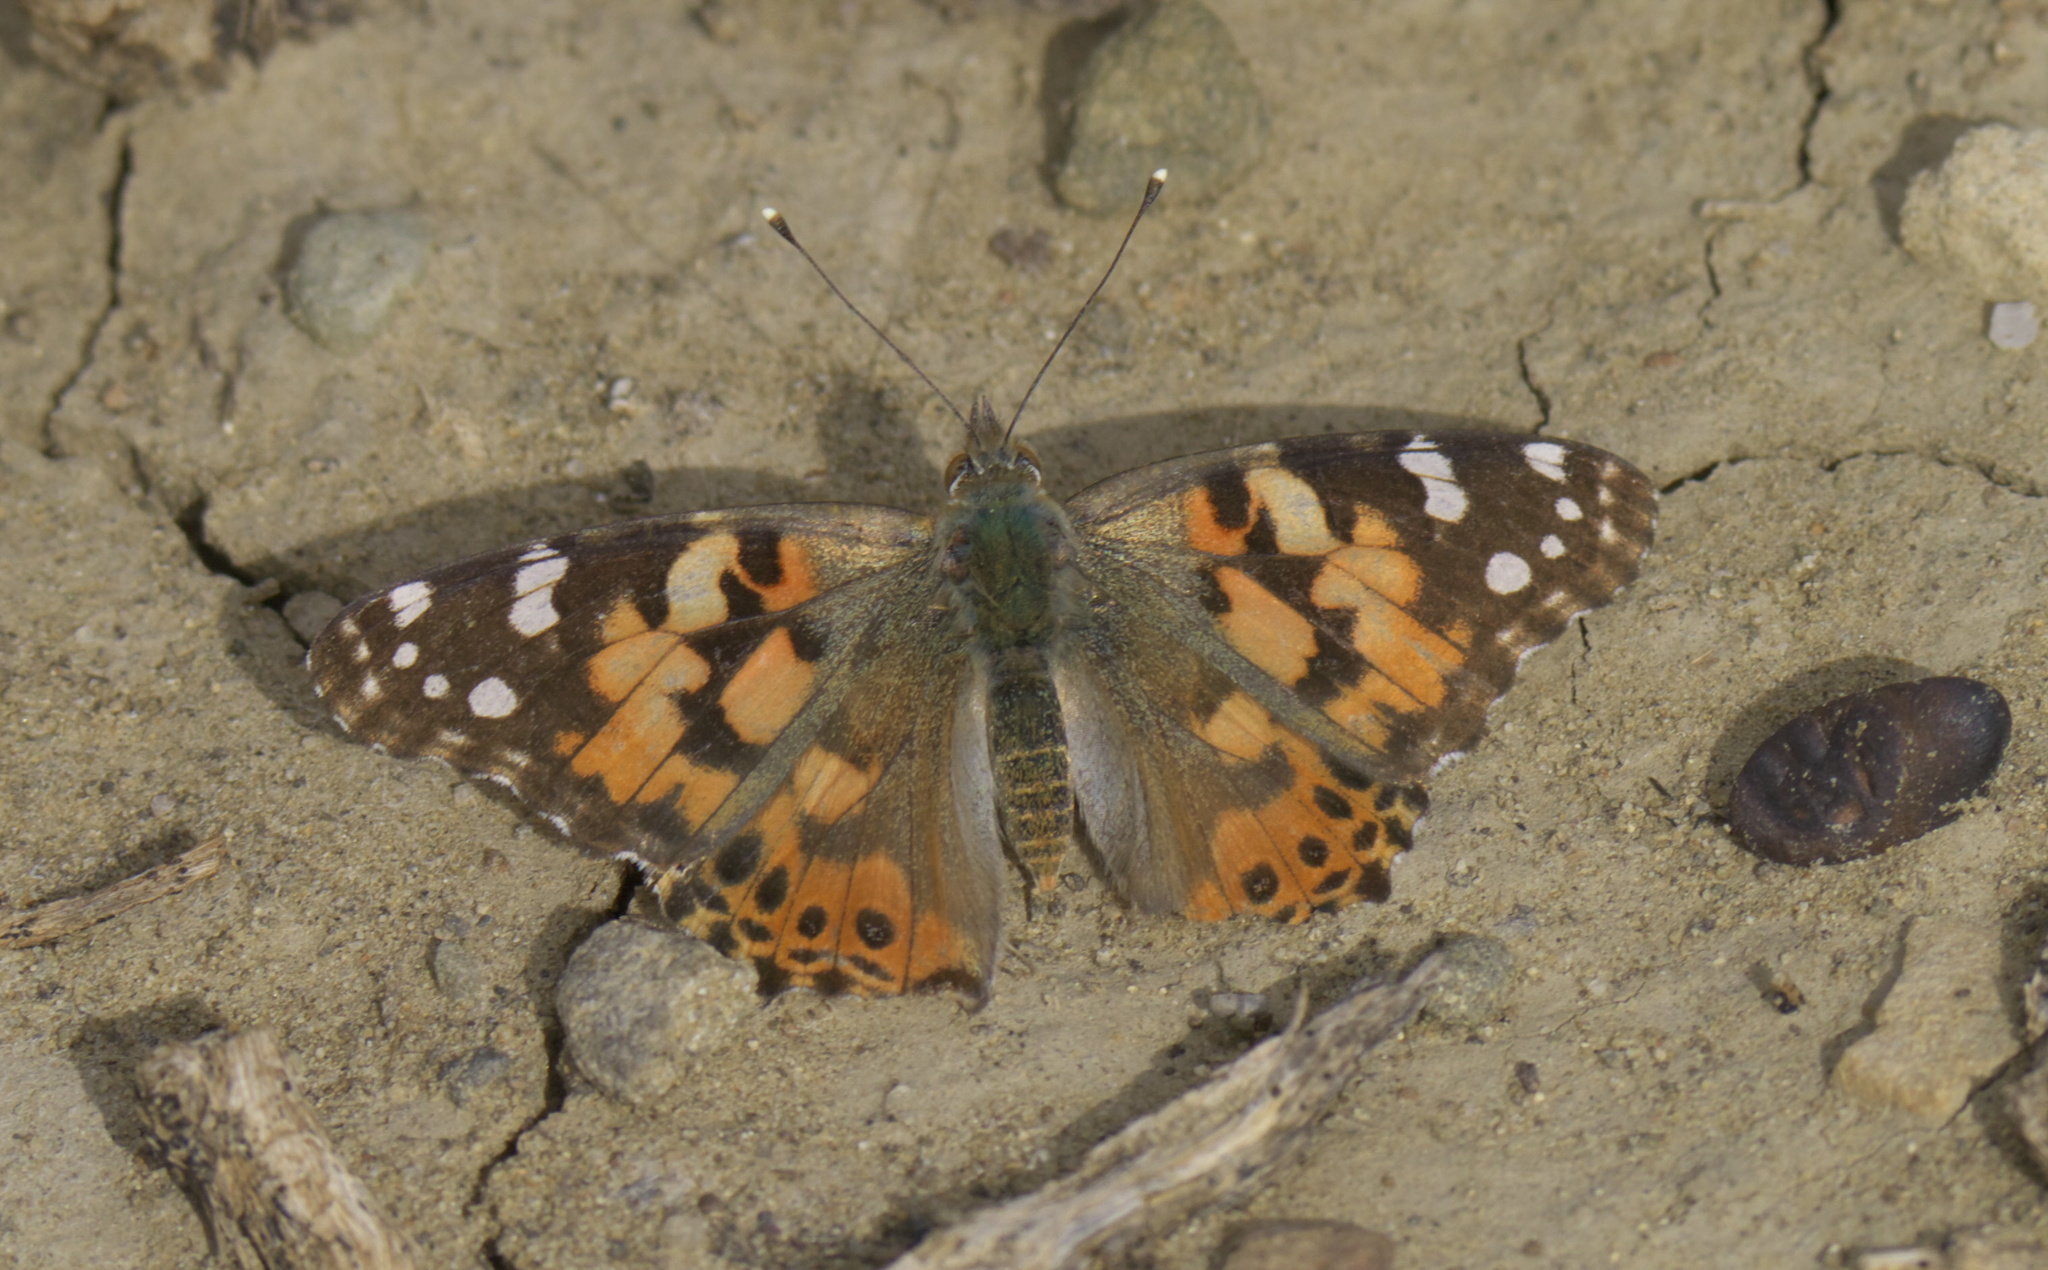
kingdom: Animalia
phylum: Arthropoda
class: Insecta
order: Lepidoptera
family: Nymphalidae
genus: Vanessa
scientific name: Vanessa cardui
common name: Painted lady
